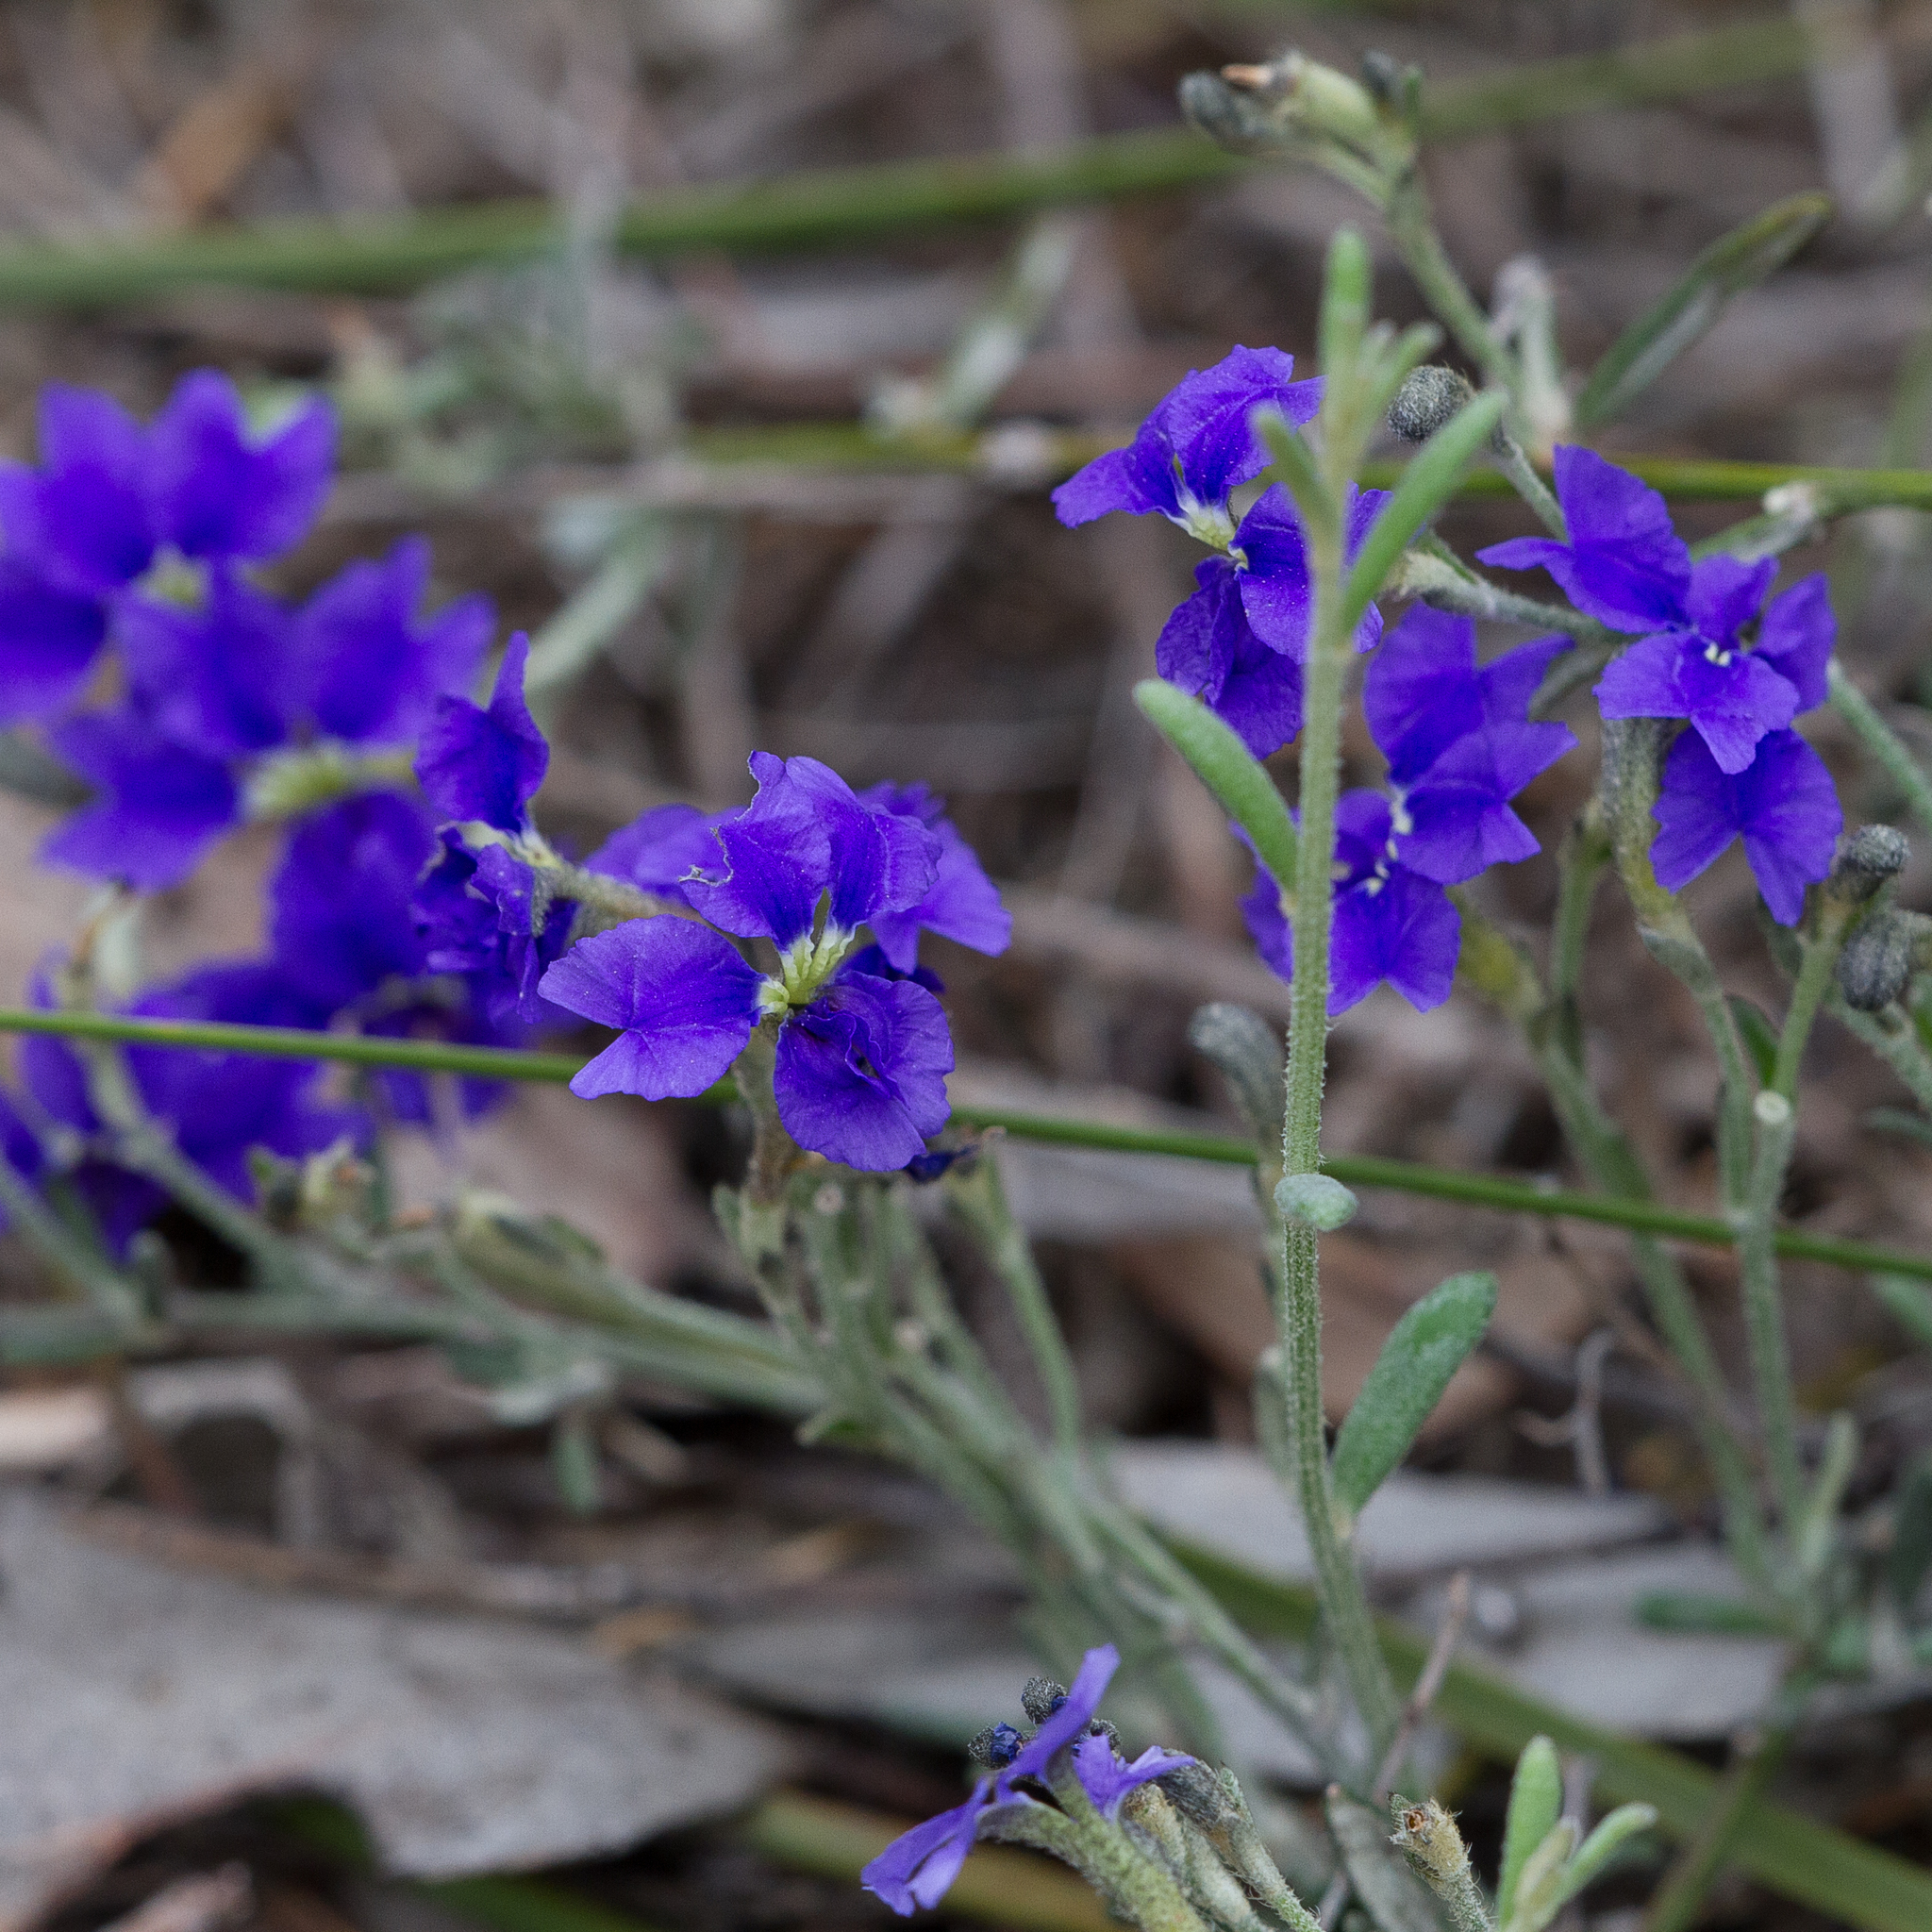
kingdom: Plantae
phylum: Tracheophyta
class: Magnoliopsida
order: Asterales
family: Goodeniaceae
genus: Dampiera
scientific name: Dampiera dysantha
